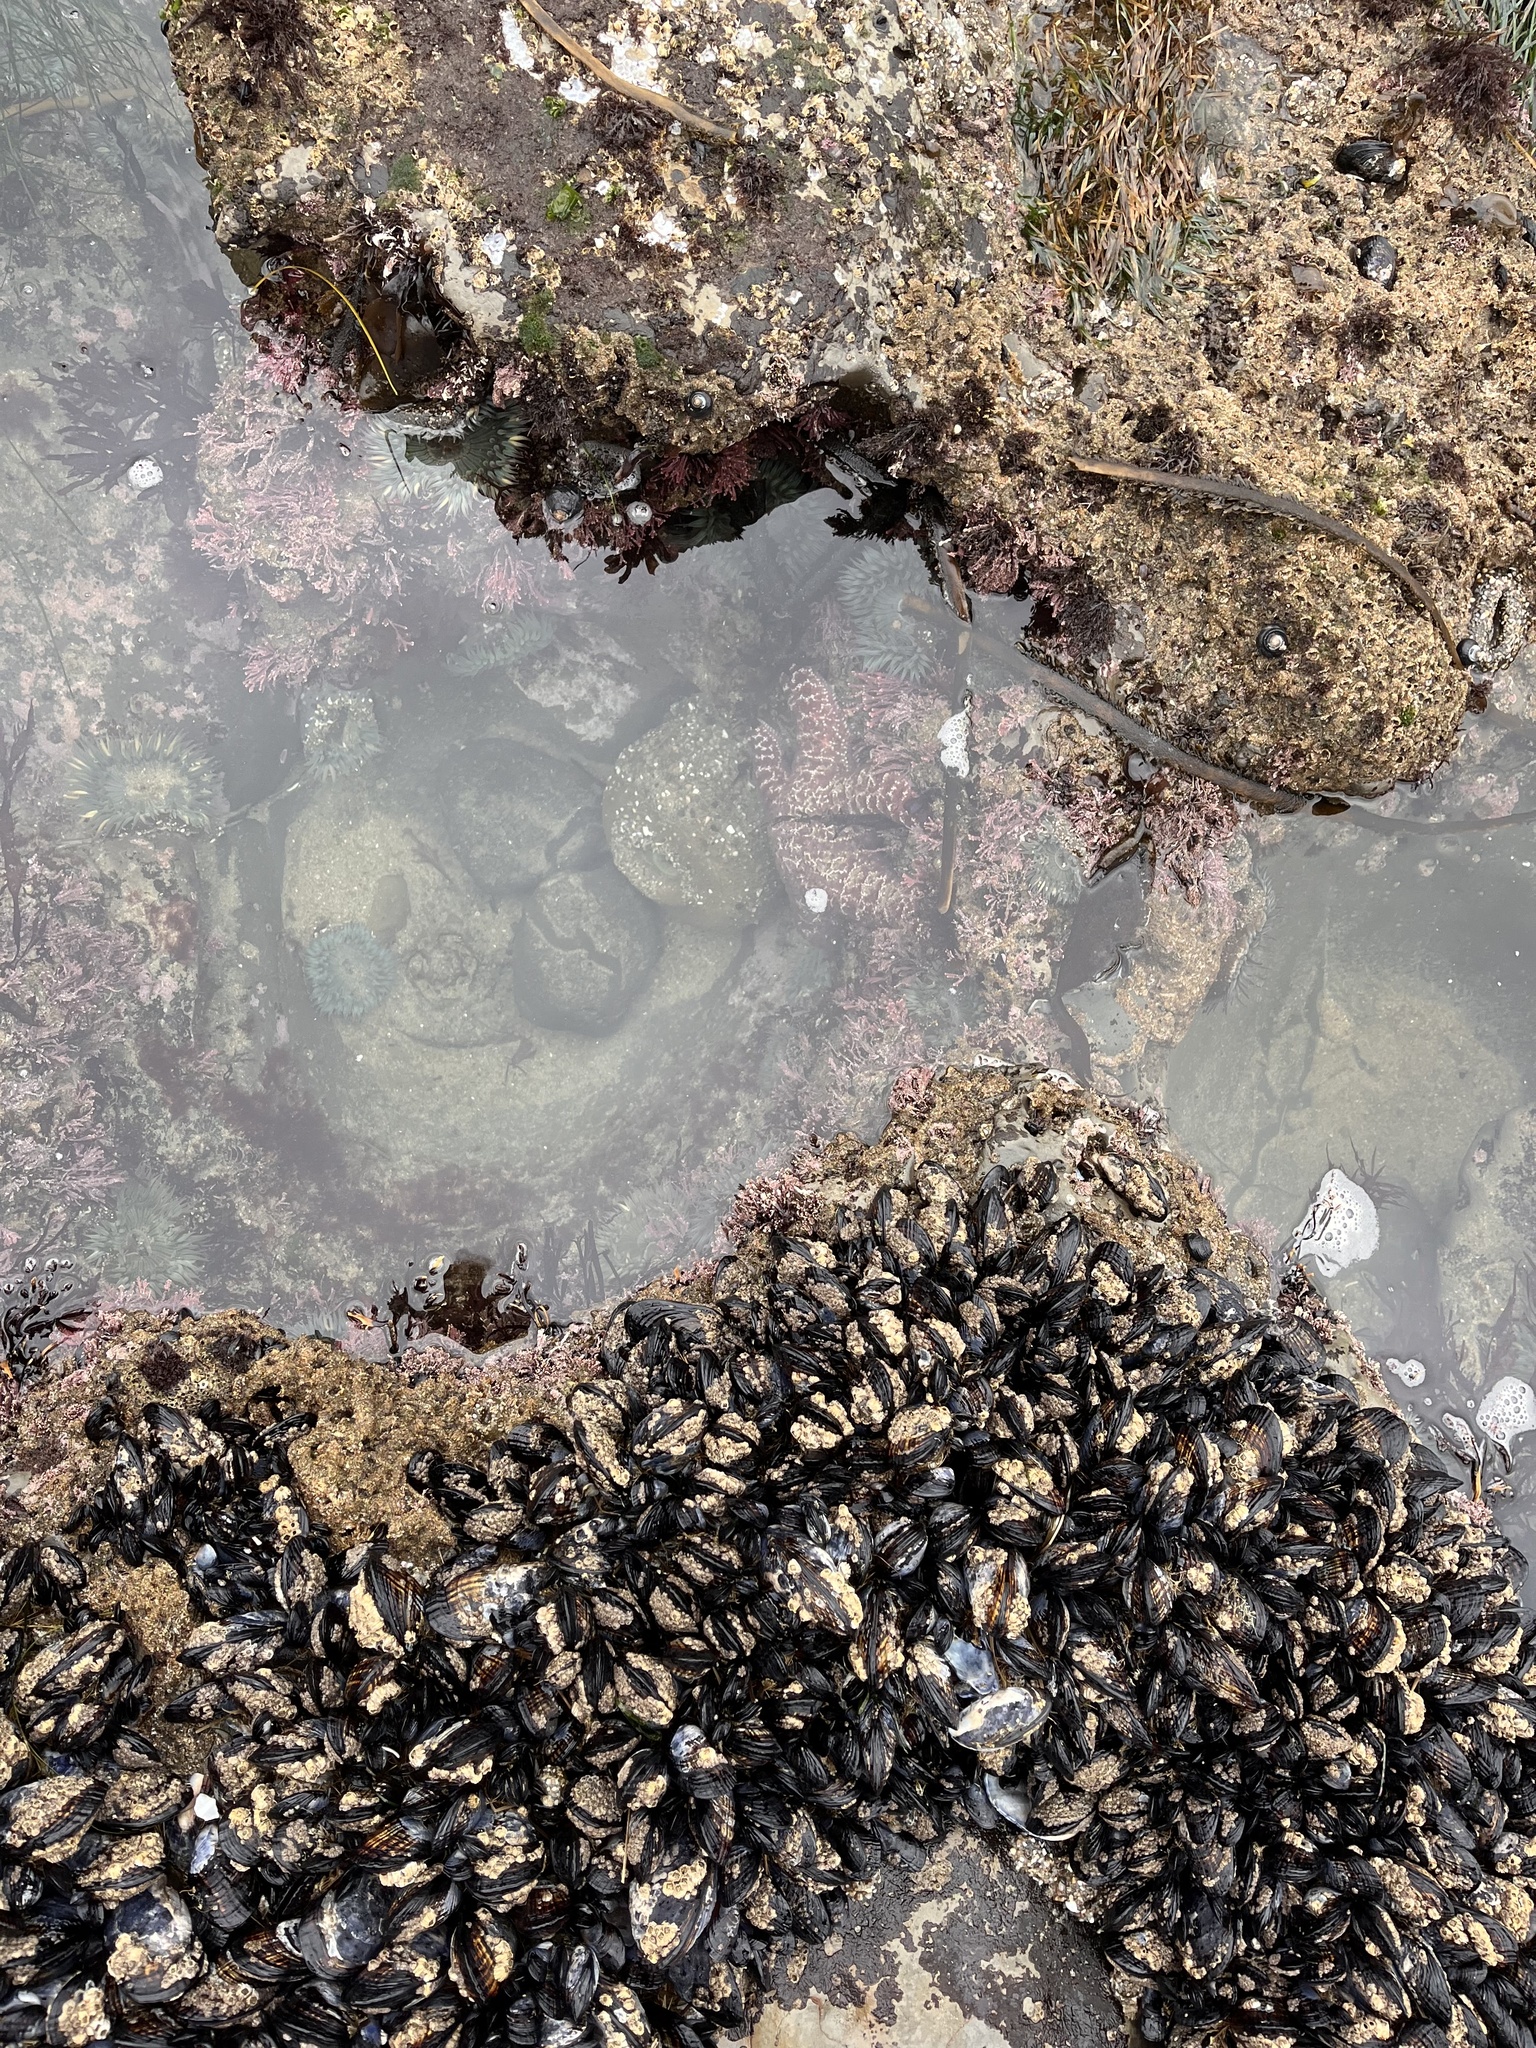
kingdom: Animalia
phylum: Echinodermata
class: Asteroidea
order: Forcipulatida
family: Asteriidae
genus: Pisaster
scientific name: Pisaster ochraceus
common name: Ochre stars
